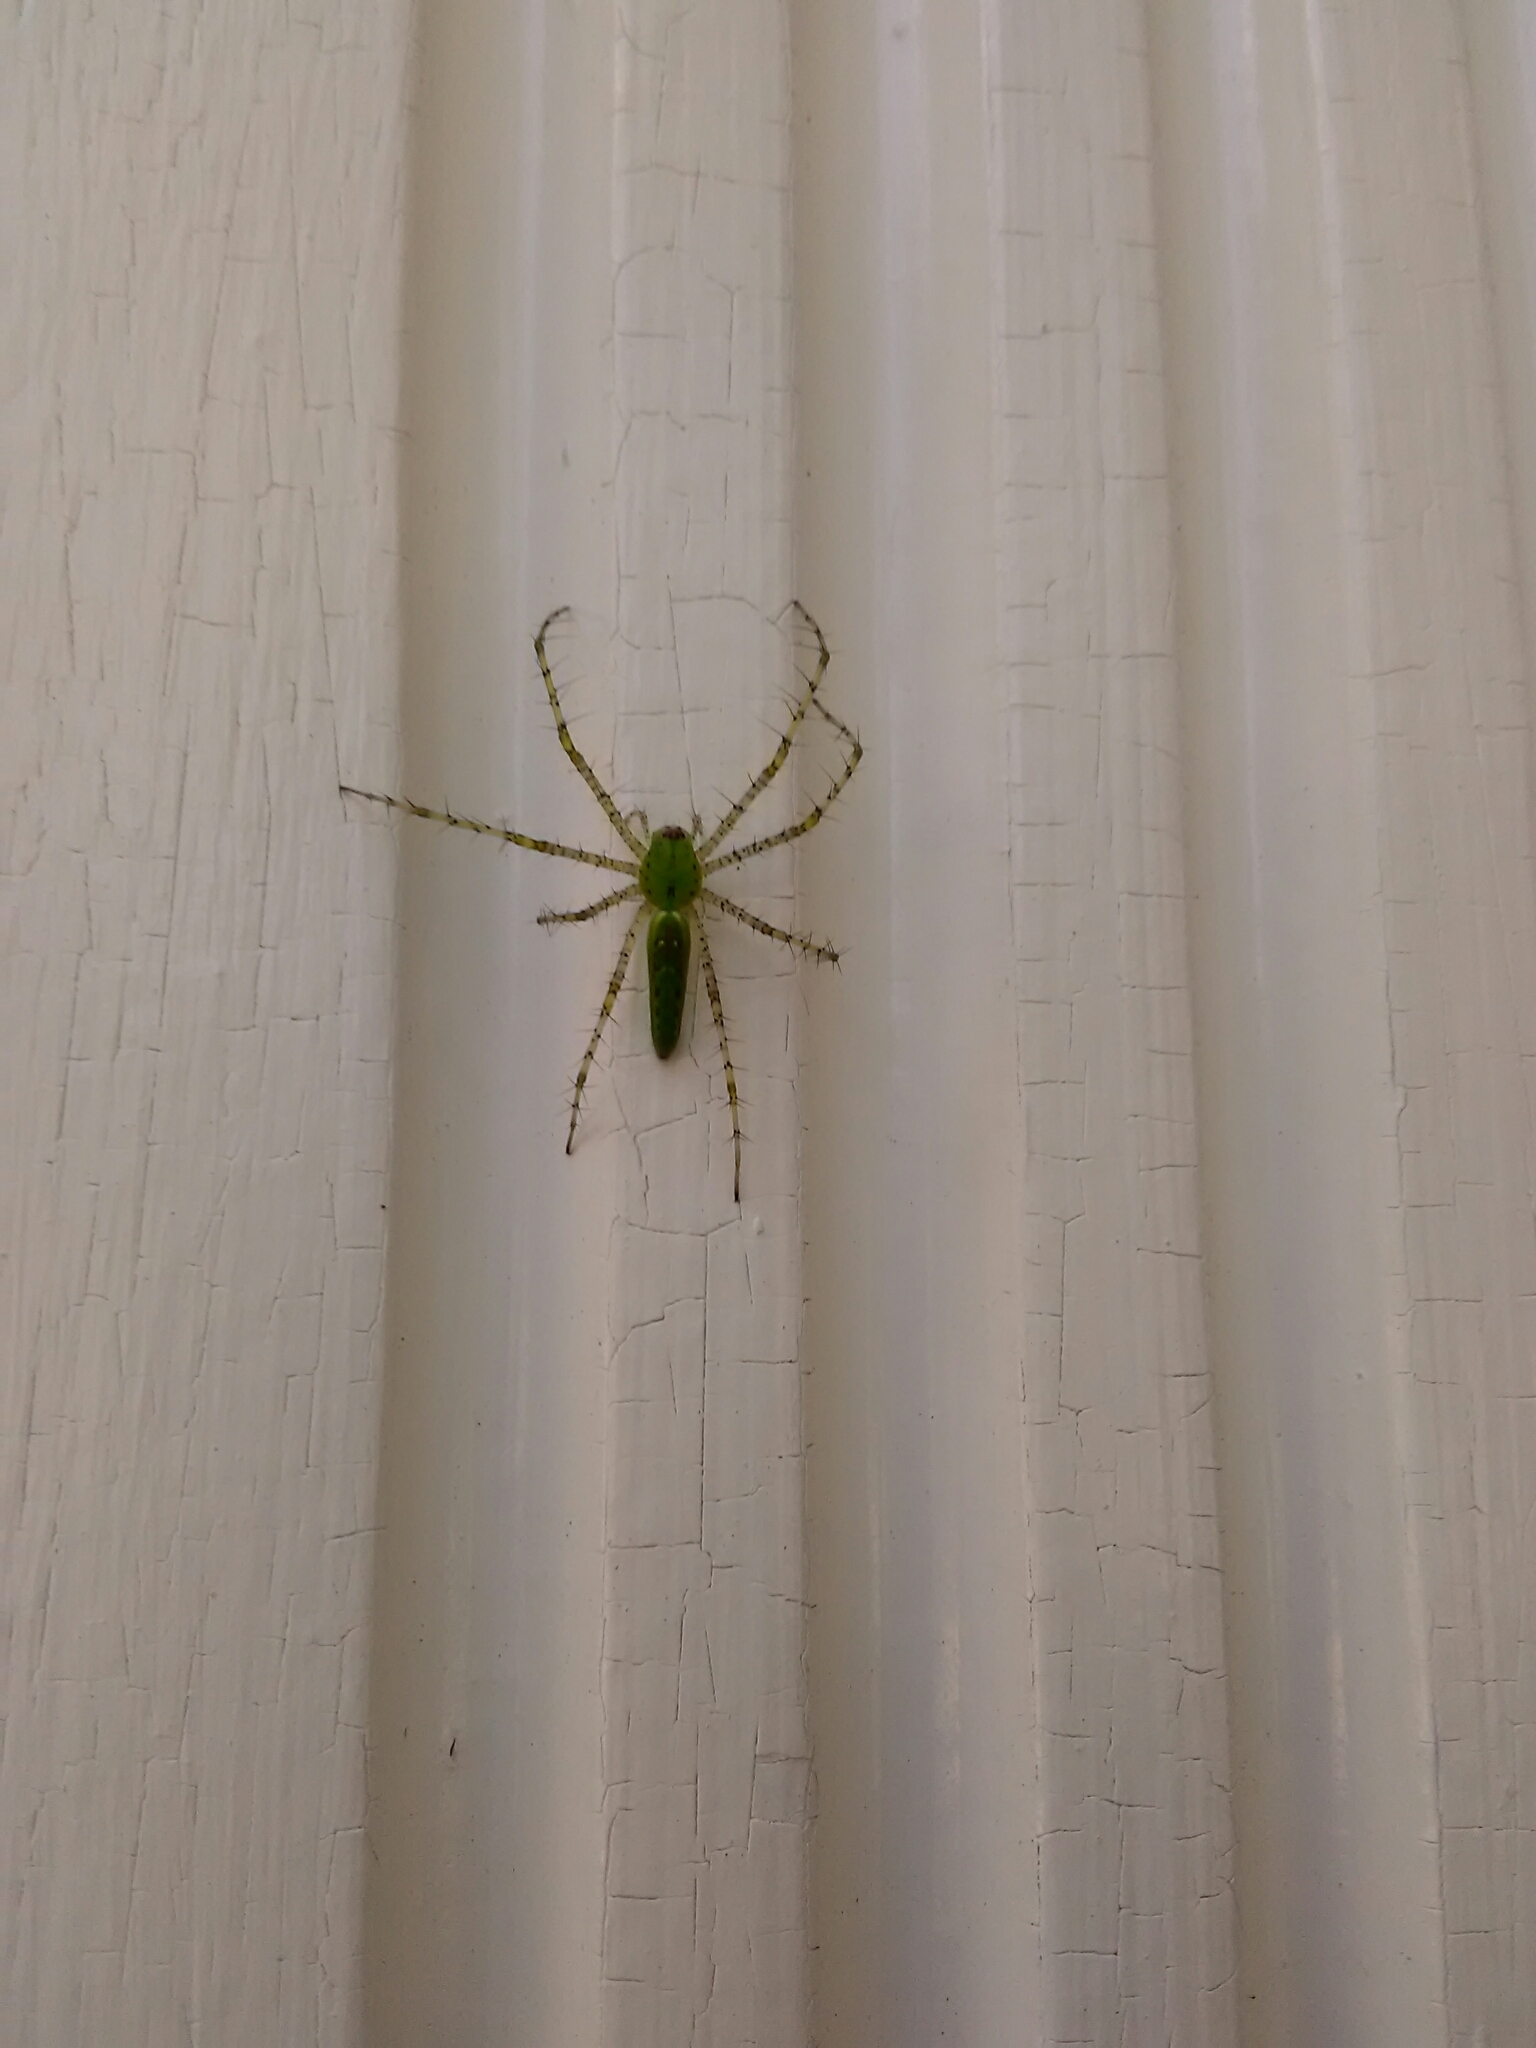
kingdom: Animalia
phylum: Arthropoda
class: Arachnida
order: Araneae
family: Oxyopidae
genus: Peucetia
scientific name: Peucetia viridans
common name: Lynx spiders
